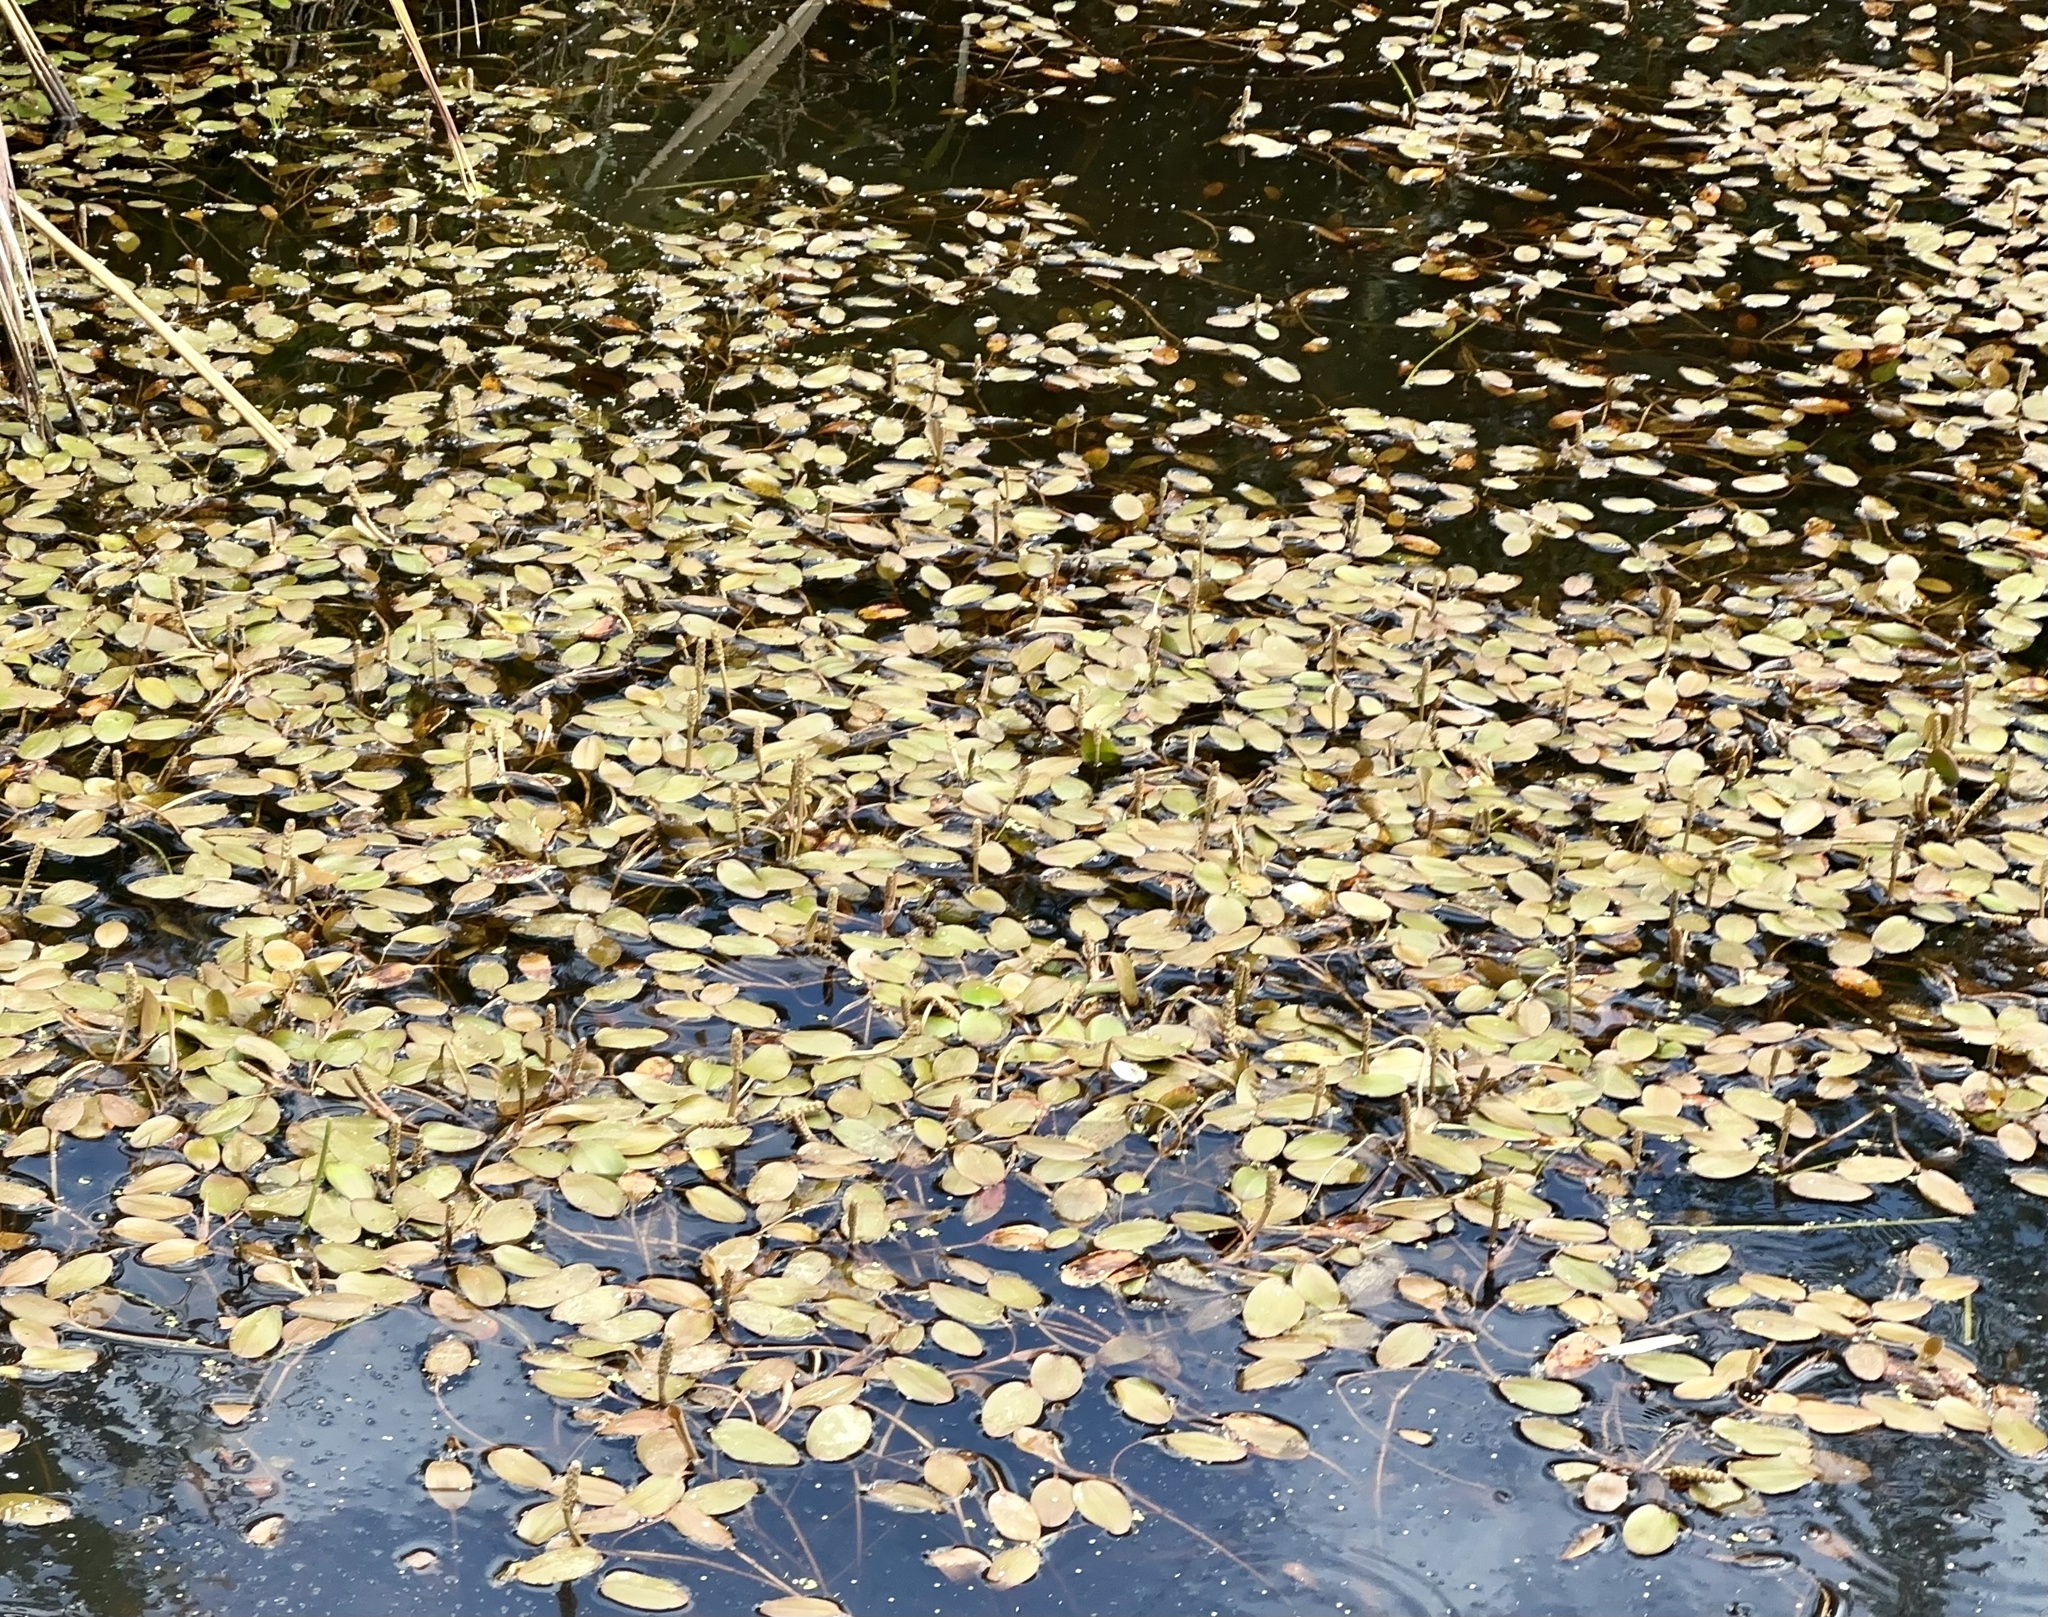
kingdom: Plantae
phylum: Tracheophyta
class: Liliopsida
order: Alismatales
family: Potamogetonaceae
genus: Potamogeton
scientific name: Potamogeton cheesemanii
